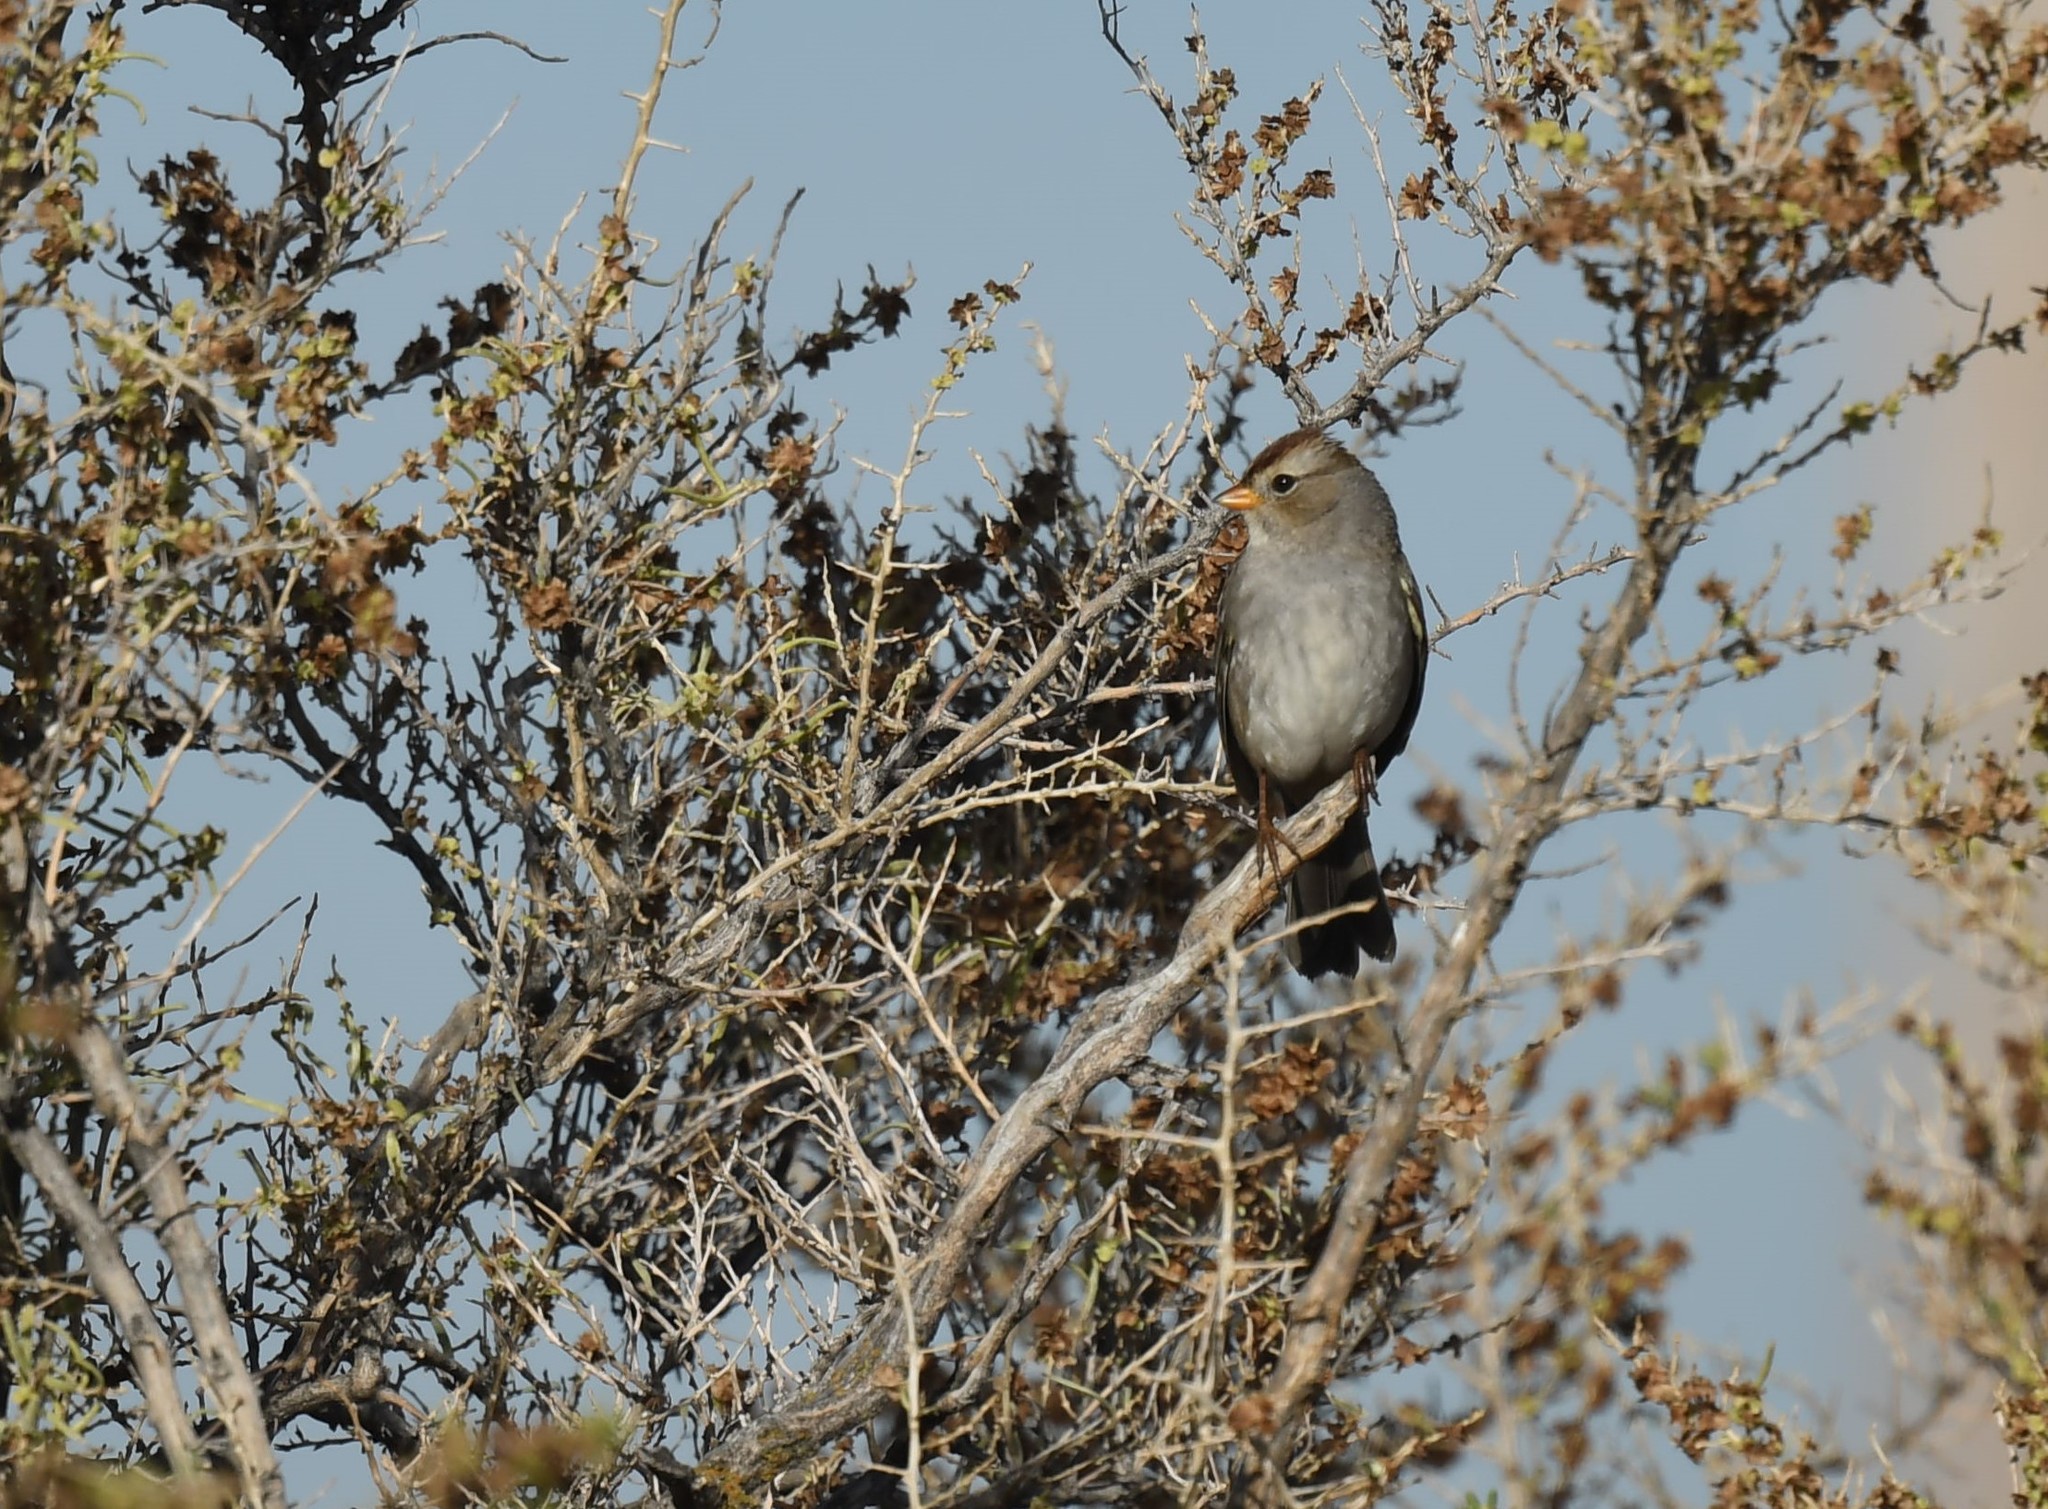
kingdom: Animalia
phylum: Chordata
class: Aves
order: Passeriformes
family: Passerellidae
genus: Zonotrichia
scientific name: Zonotrichia leucophrys
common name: White-crowned sparrow
